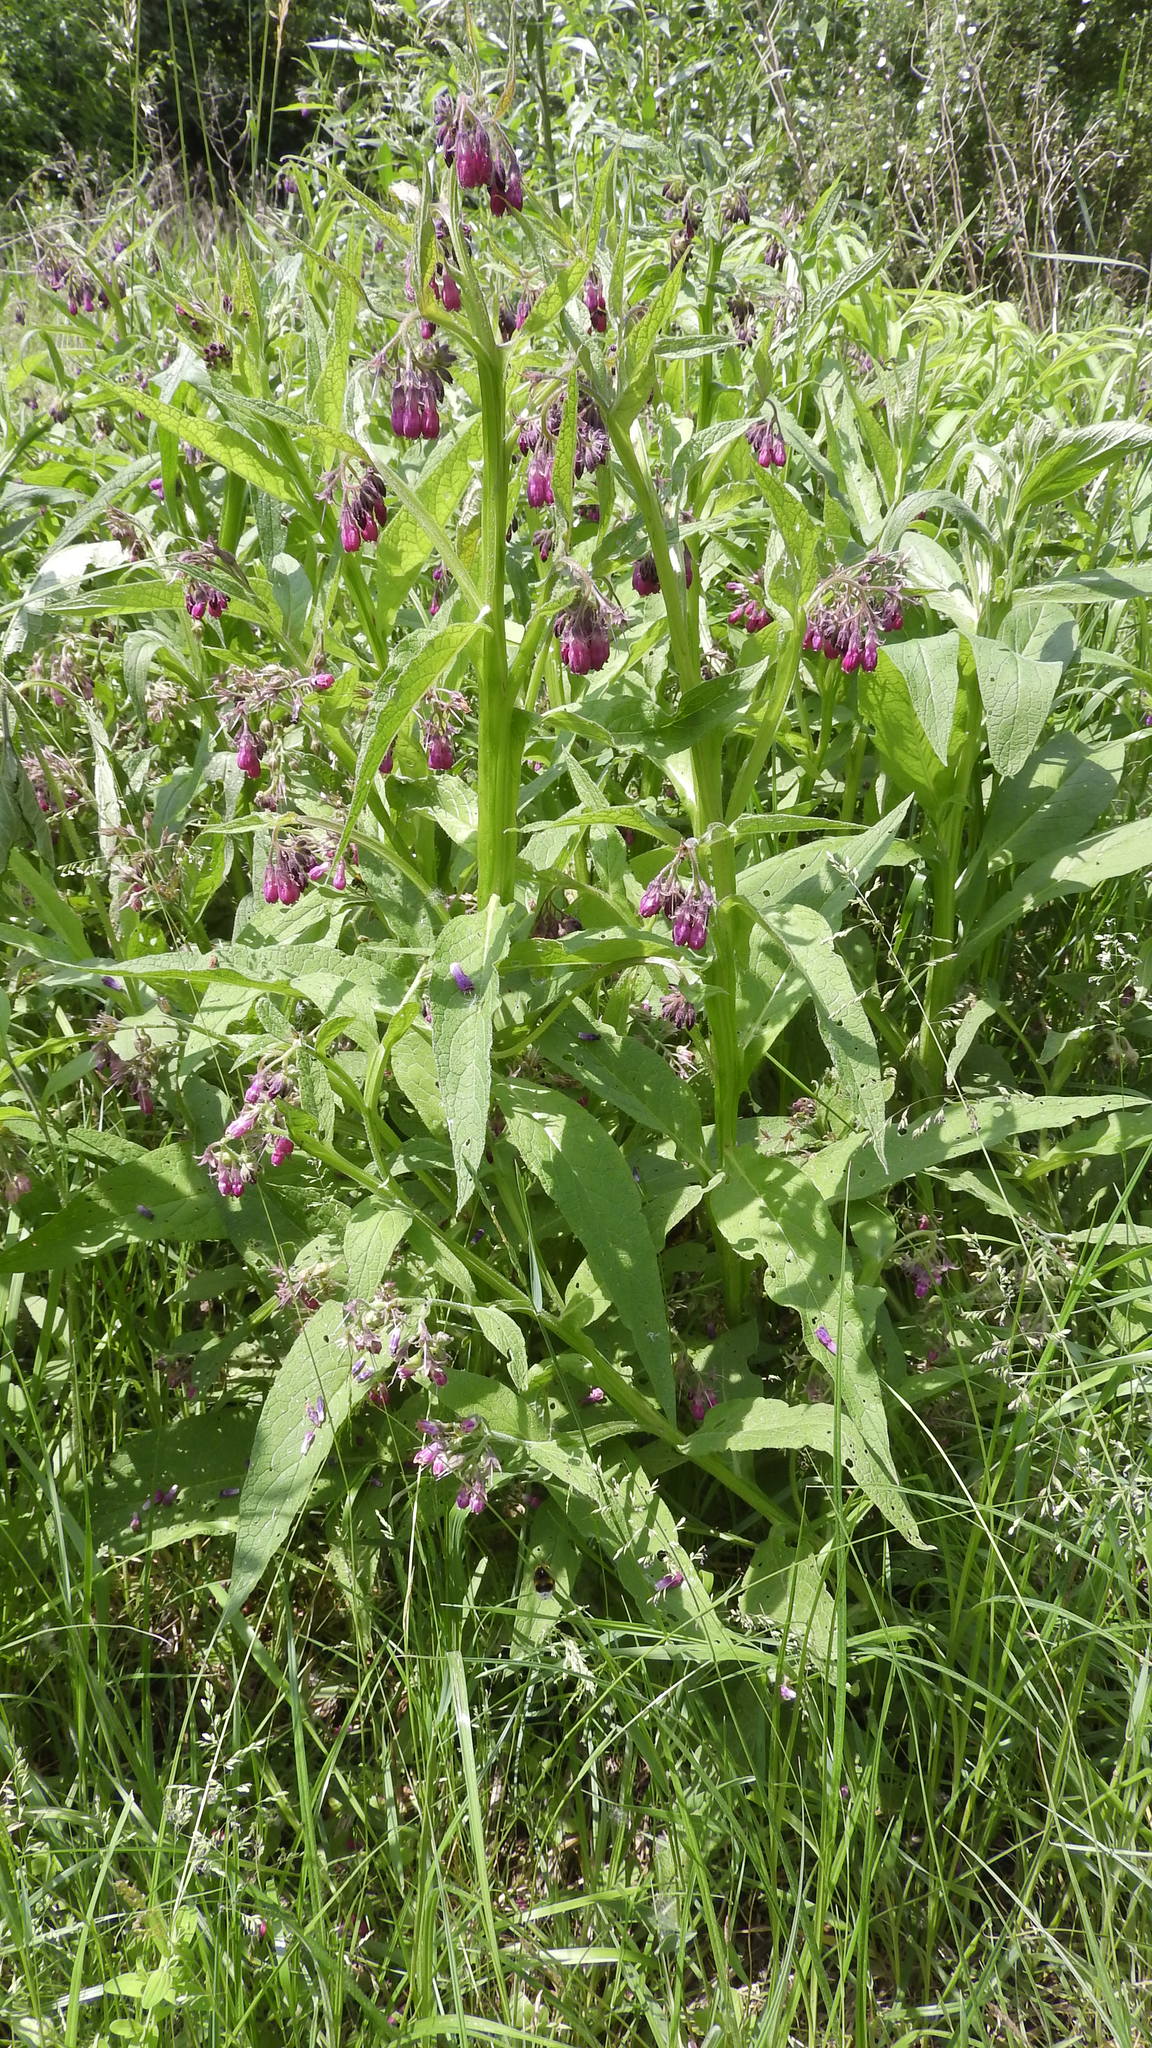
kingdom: Plantae
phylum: Tracheophyta
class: Magnoliopsida
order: Boraginales
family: Boraginaceae
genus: Symphytum
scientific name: Symphytum officinale
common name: Common comfrey
